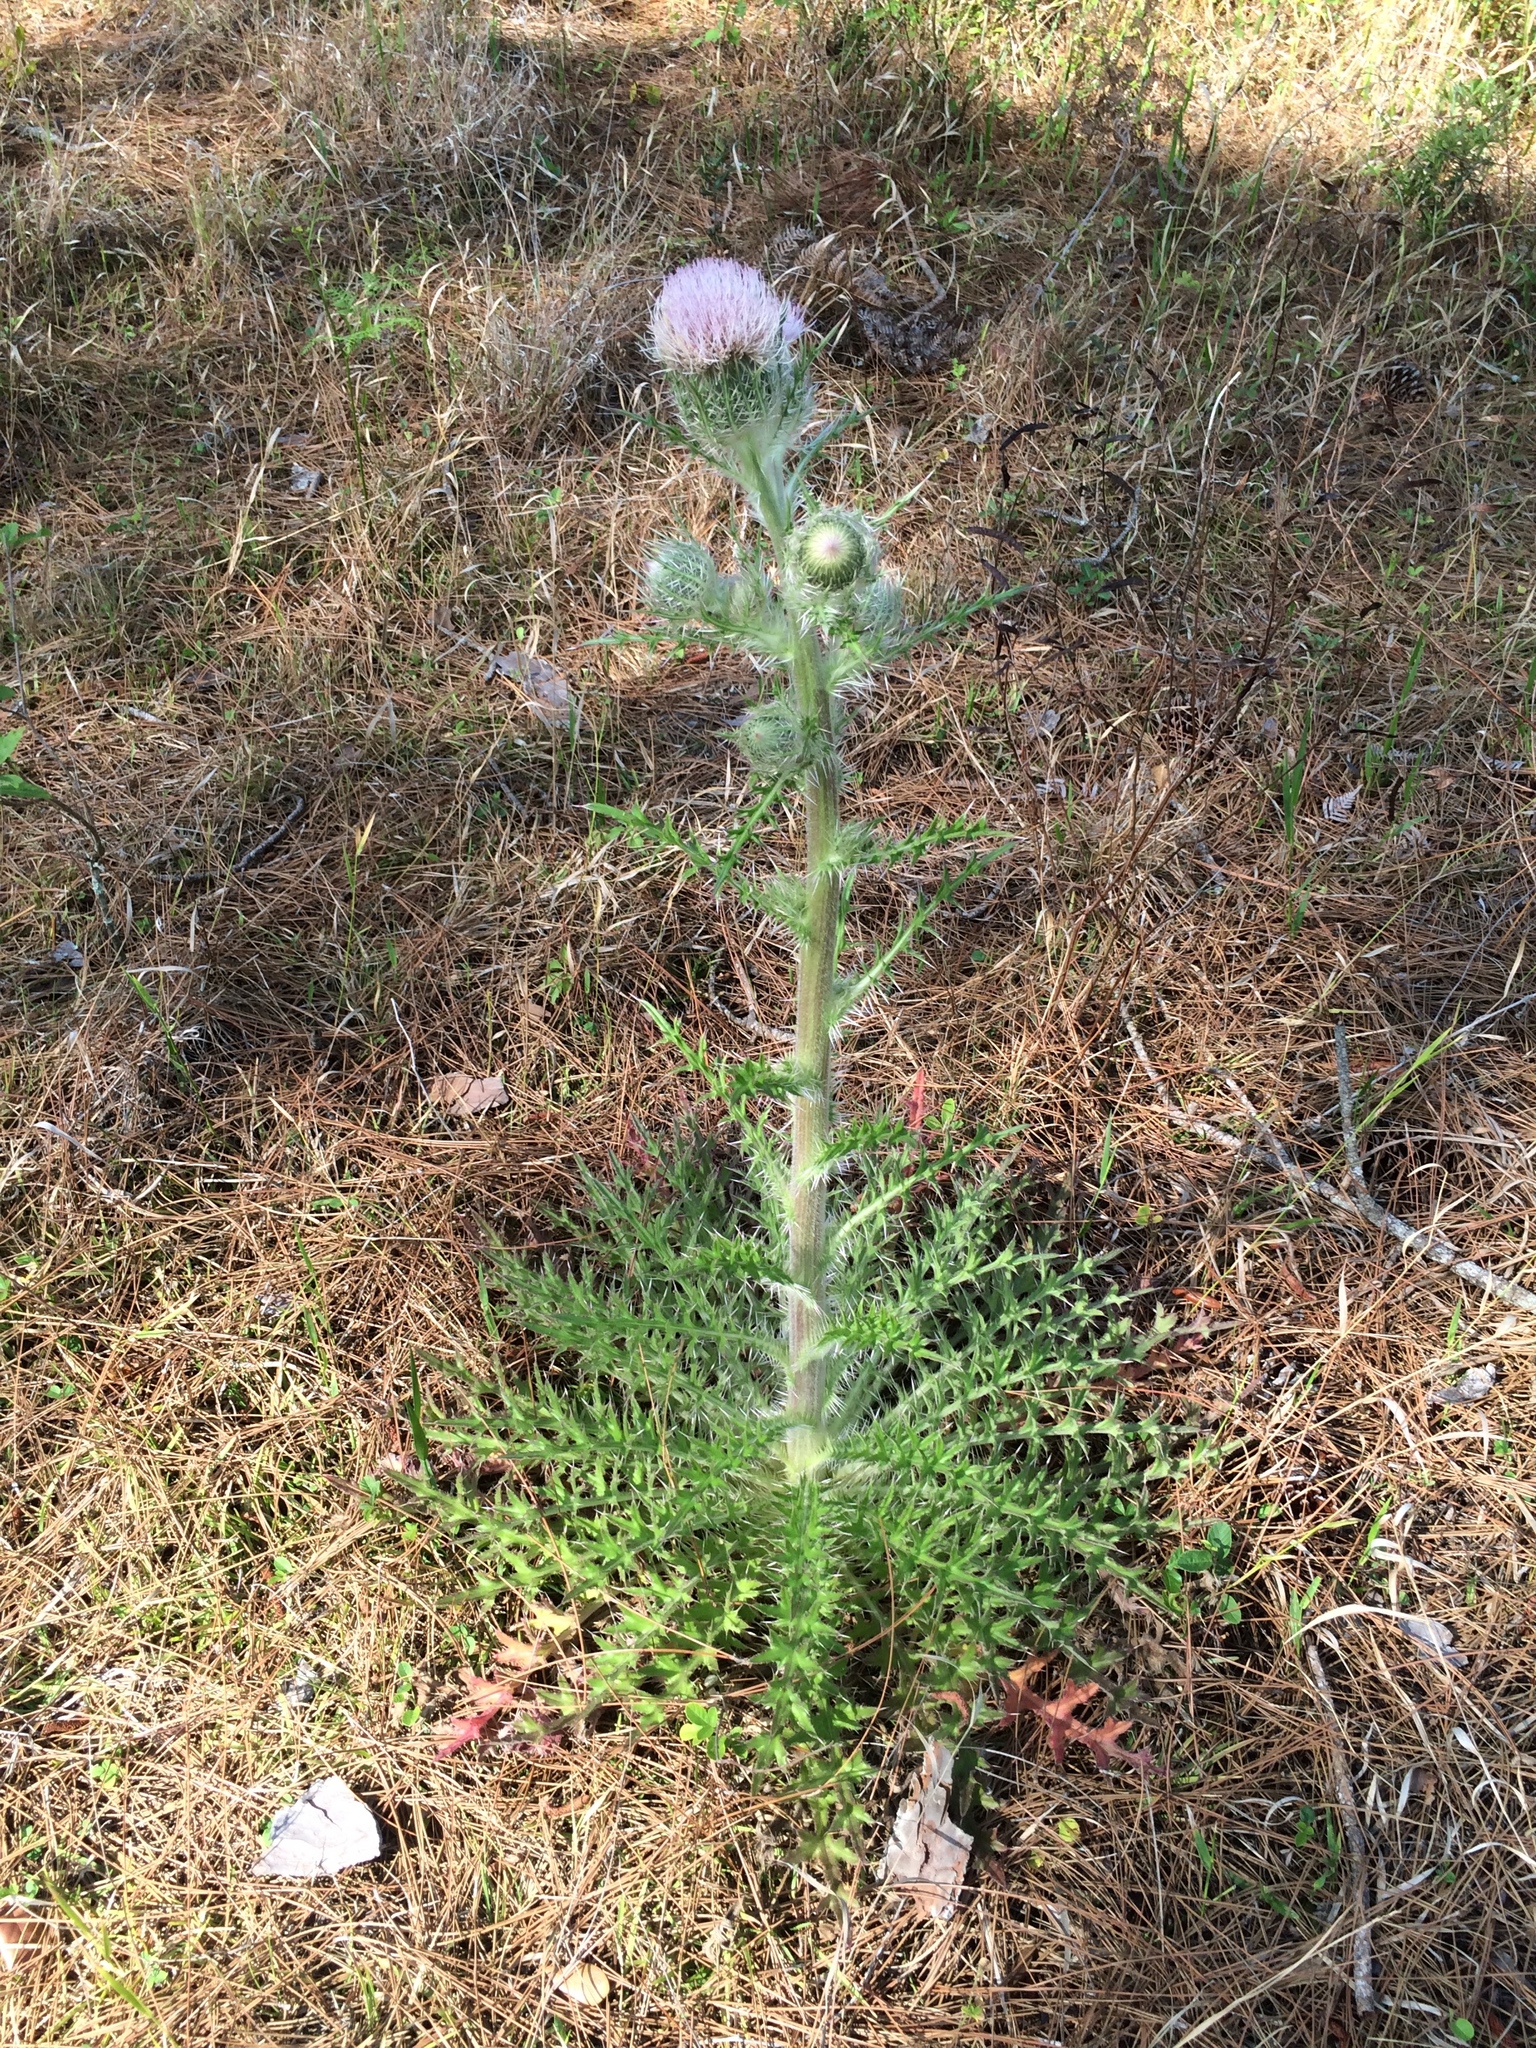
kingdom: Plantae
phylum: Tracheophyta
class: Magnoliopsida
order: Asterales
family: Asteraceae
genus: Cirsium
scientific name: Cirsium horridulum
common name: Bristly thistle
